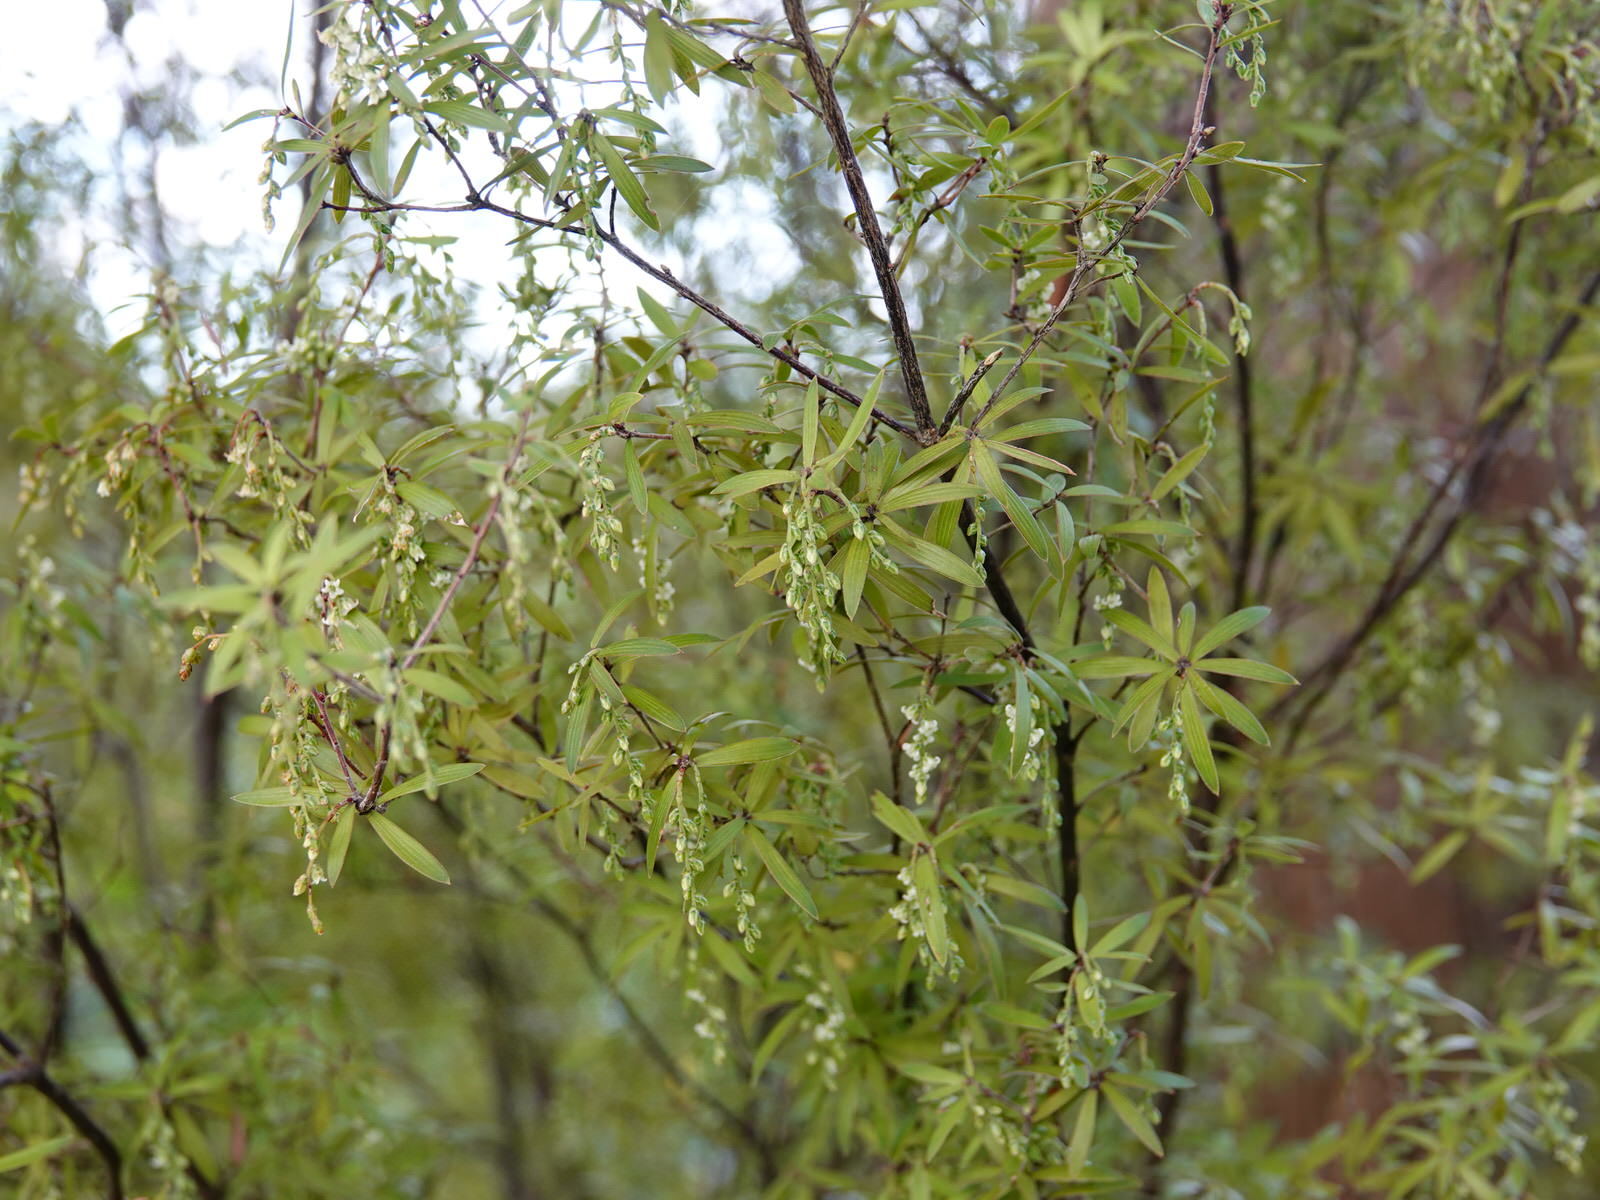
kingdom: Plantae
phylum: Tracheophyta
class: Magnoliopsida
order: Ericales
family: Ericaceae
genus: Leucopogon
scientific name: Leucopogon fasciculatus
